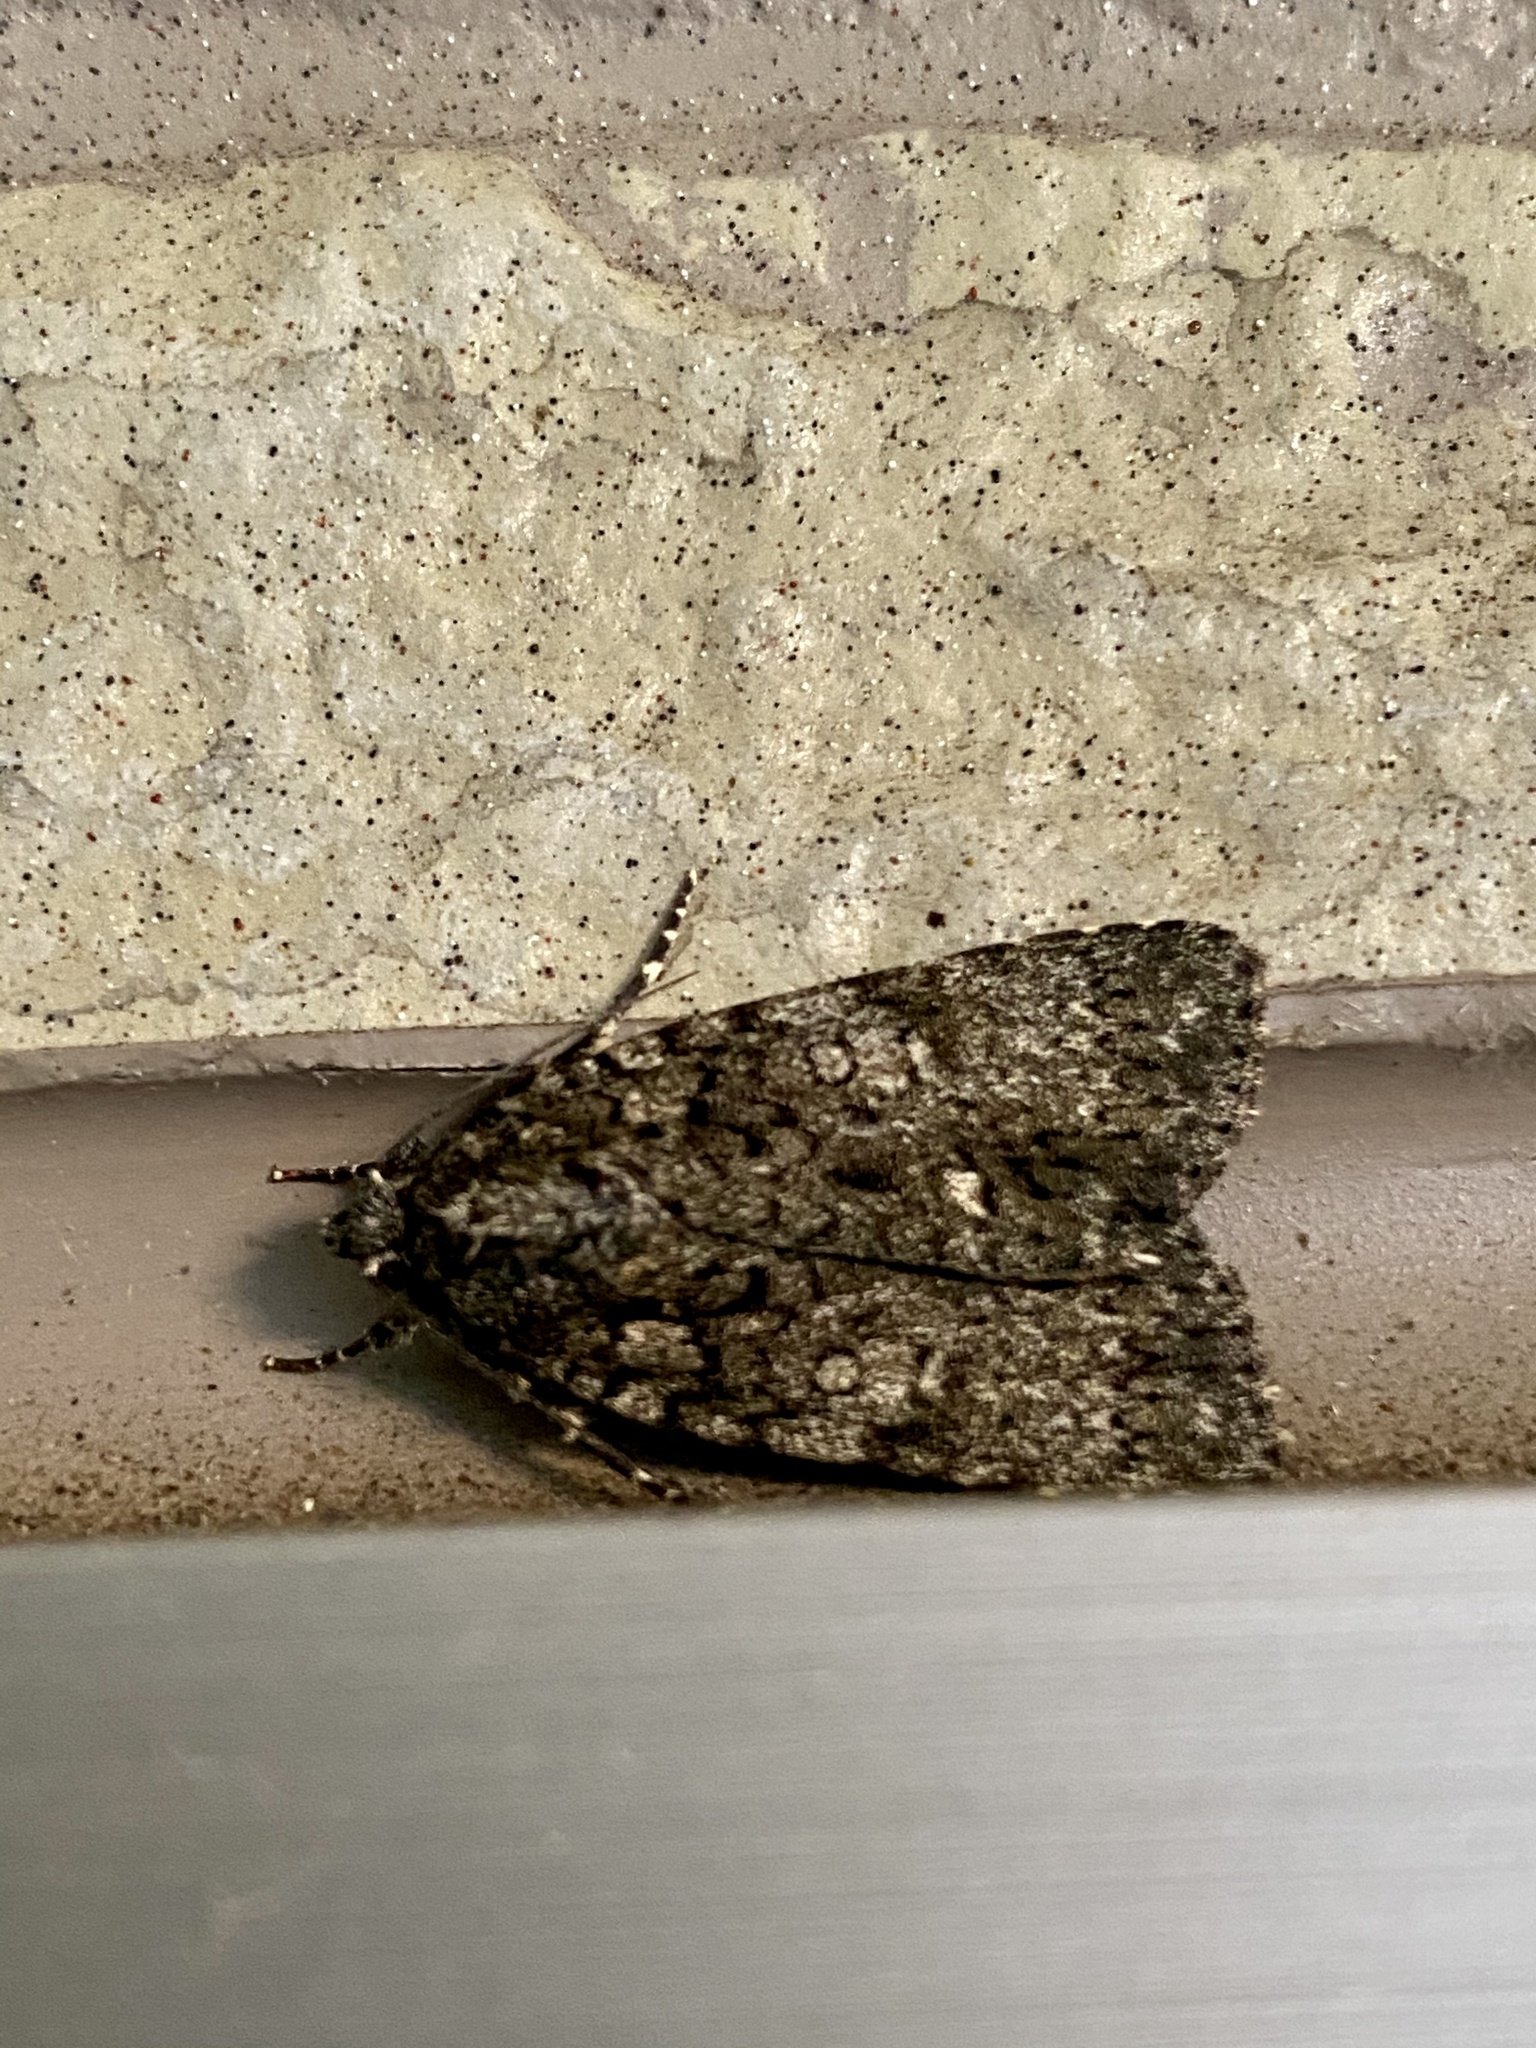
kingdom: Animalia
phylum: Arthropoda
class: Insecta
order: Lepidoptera
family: Noctuidae
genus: Acronicta
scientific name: Acronicta rumicis
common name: Knot grass
